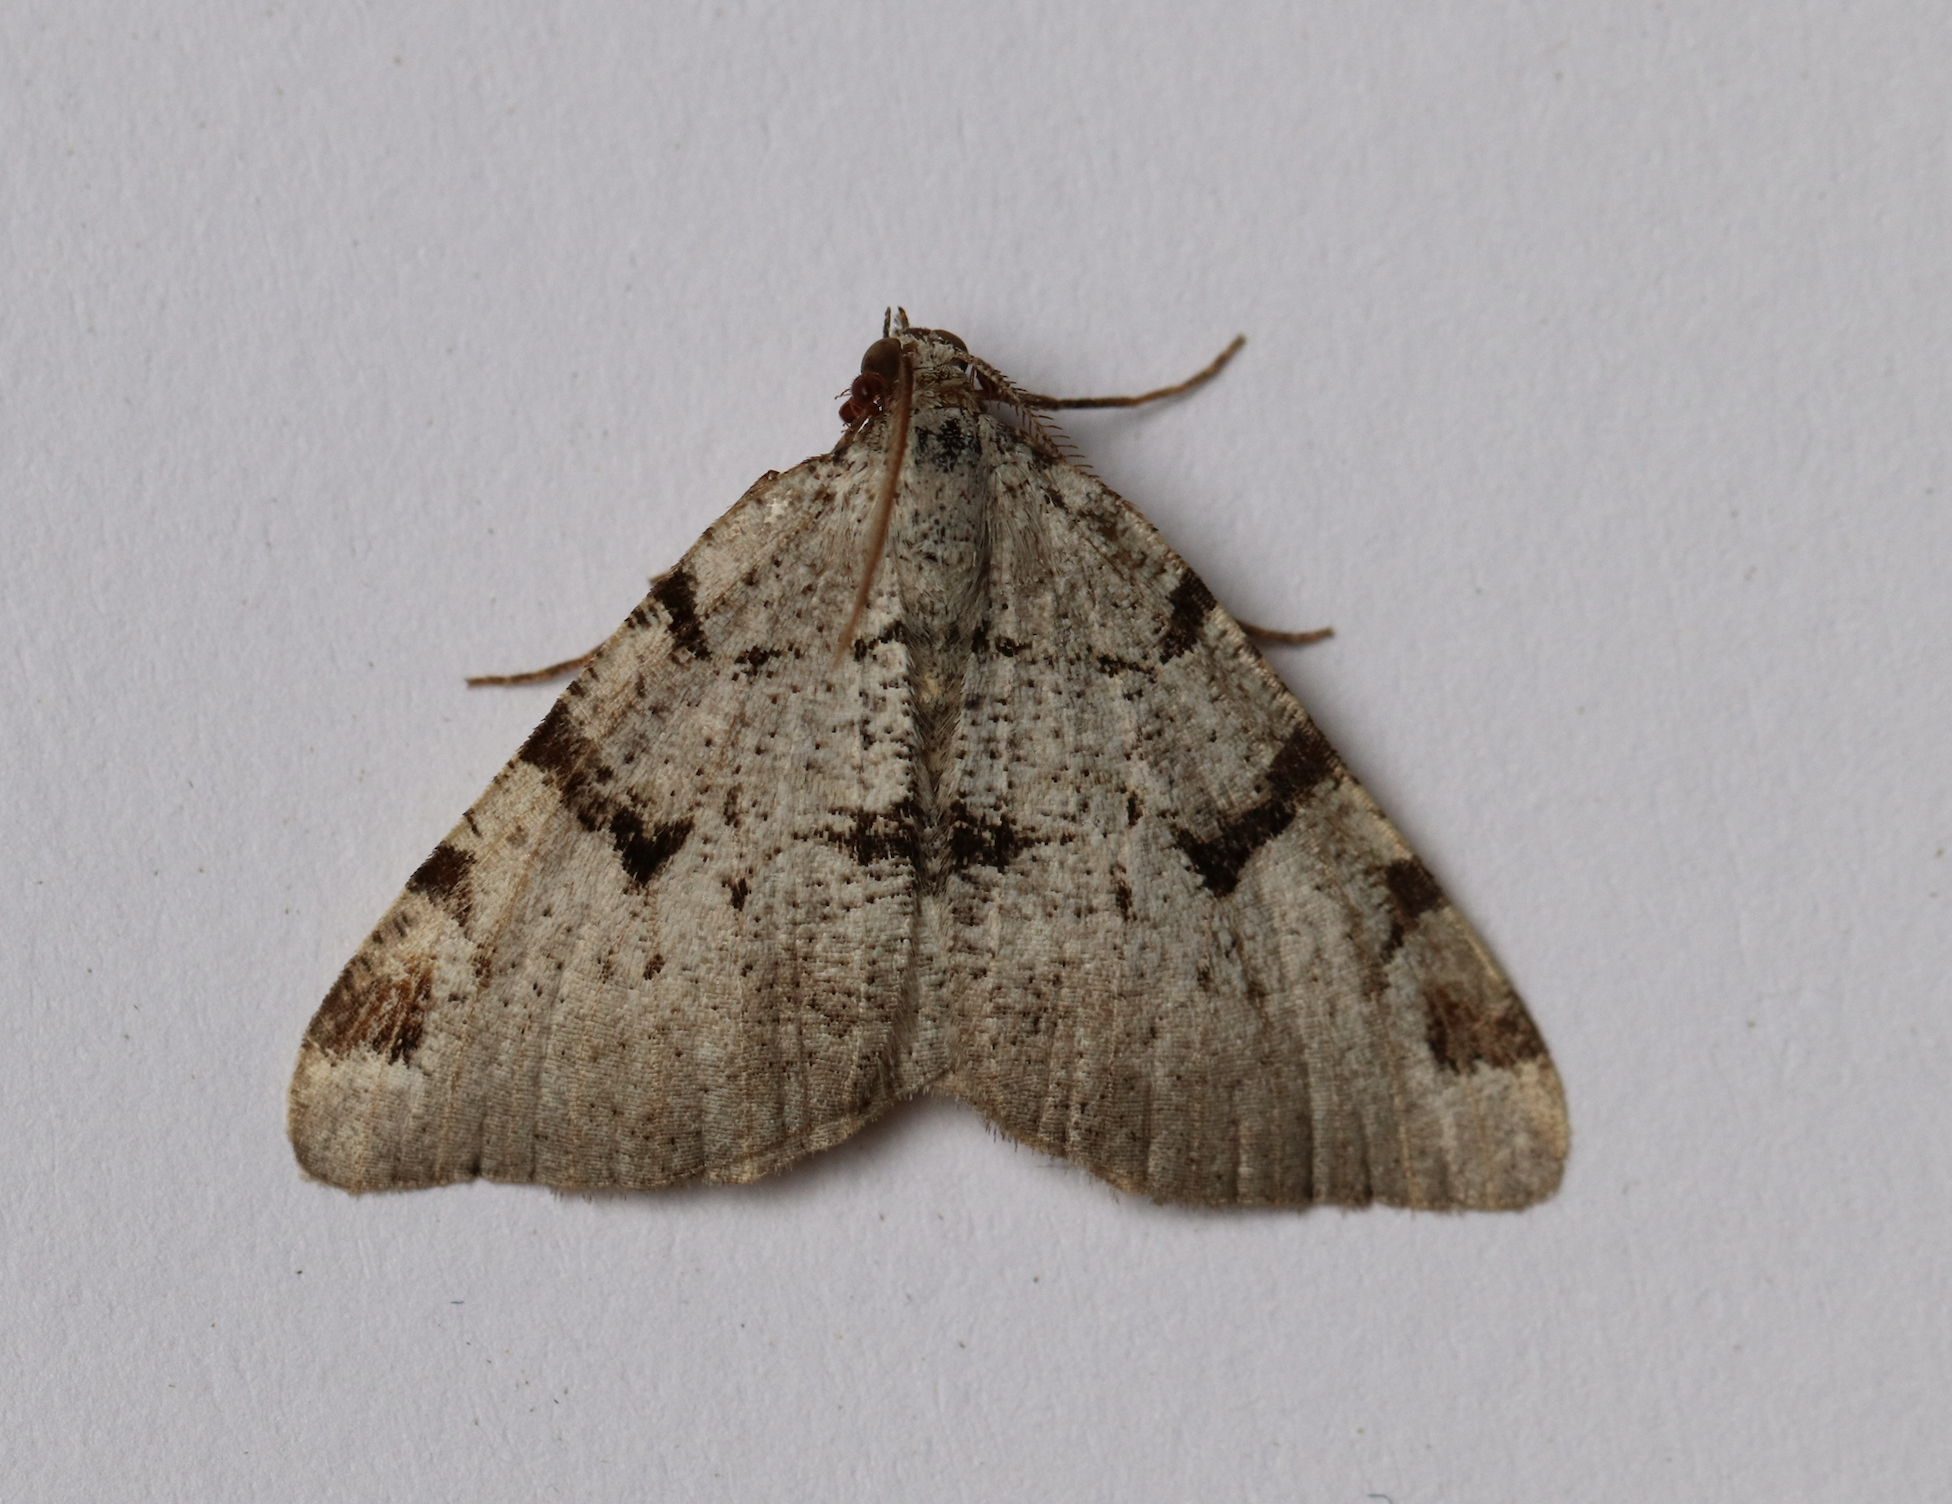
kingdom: Animalia
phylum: Arthropoda
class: Insecta
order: Lepidoptera
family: Geometridae
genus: Macaria
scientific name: Macaria wauaria
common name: V-moth
